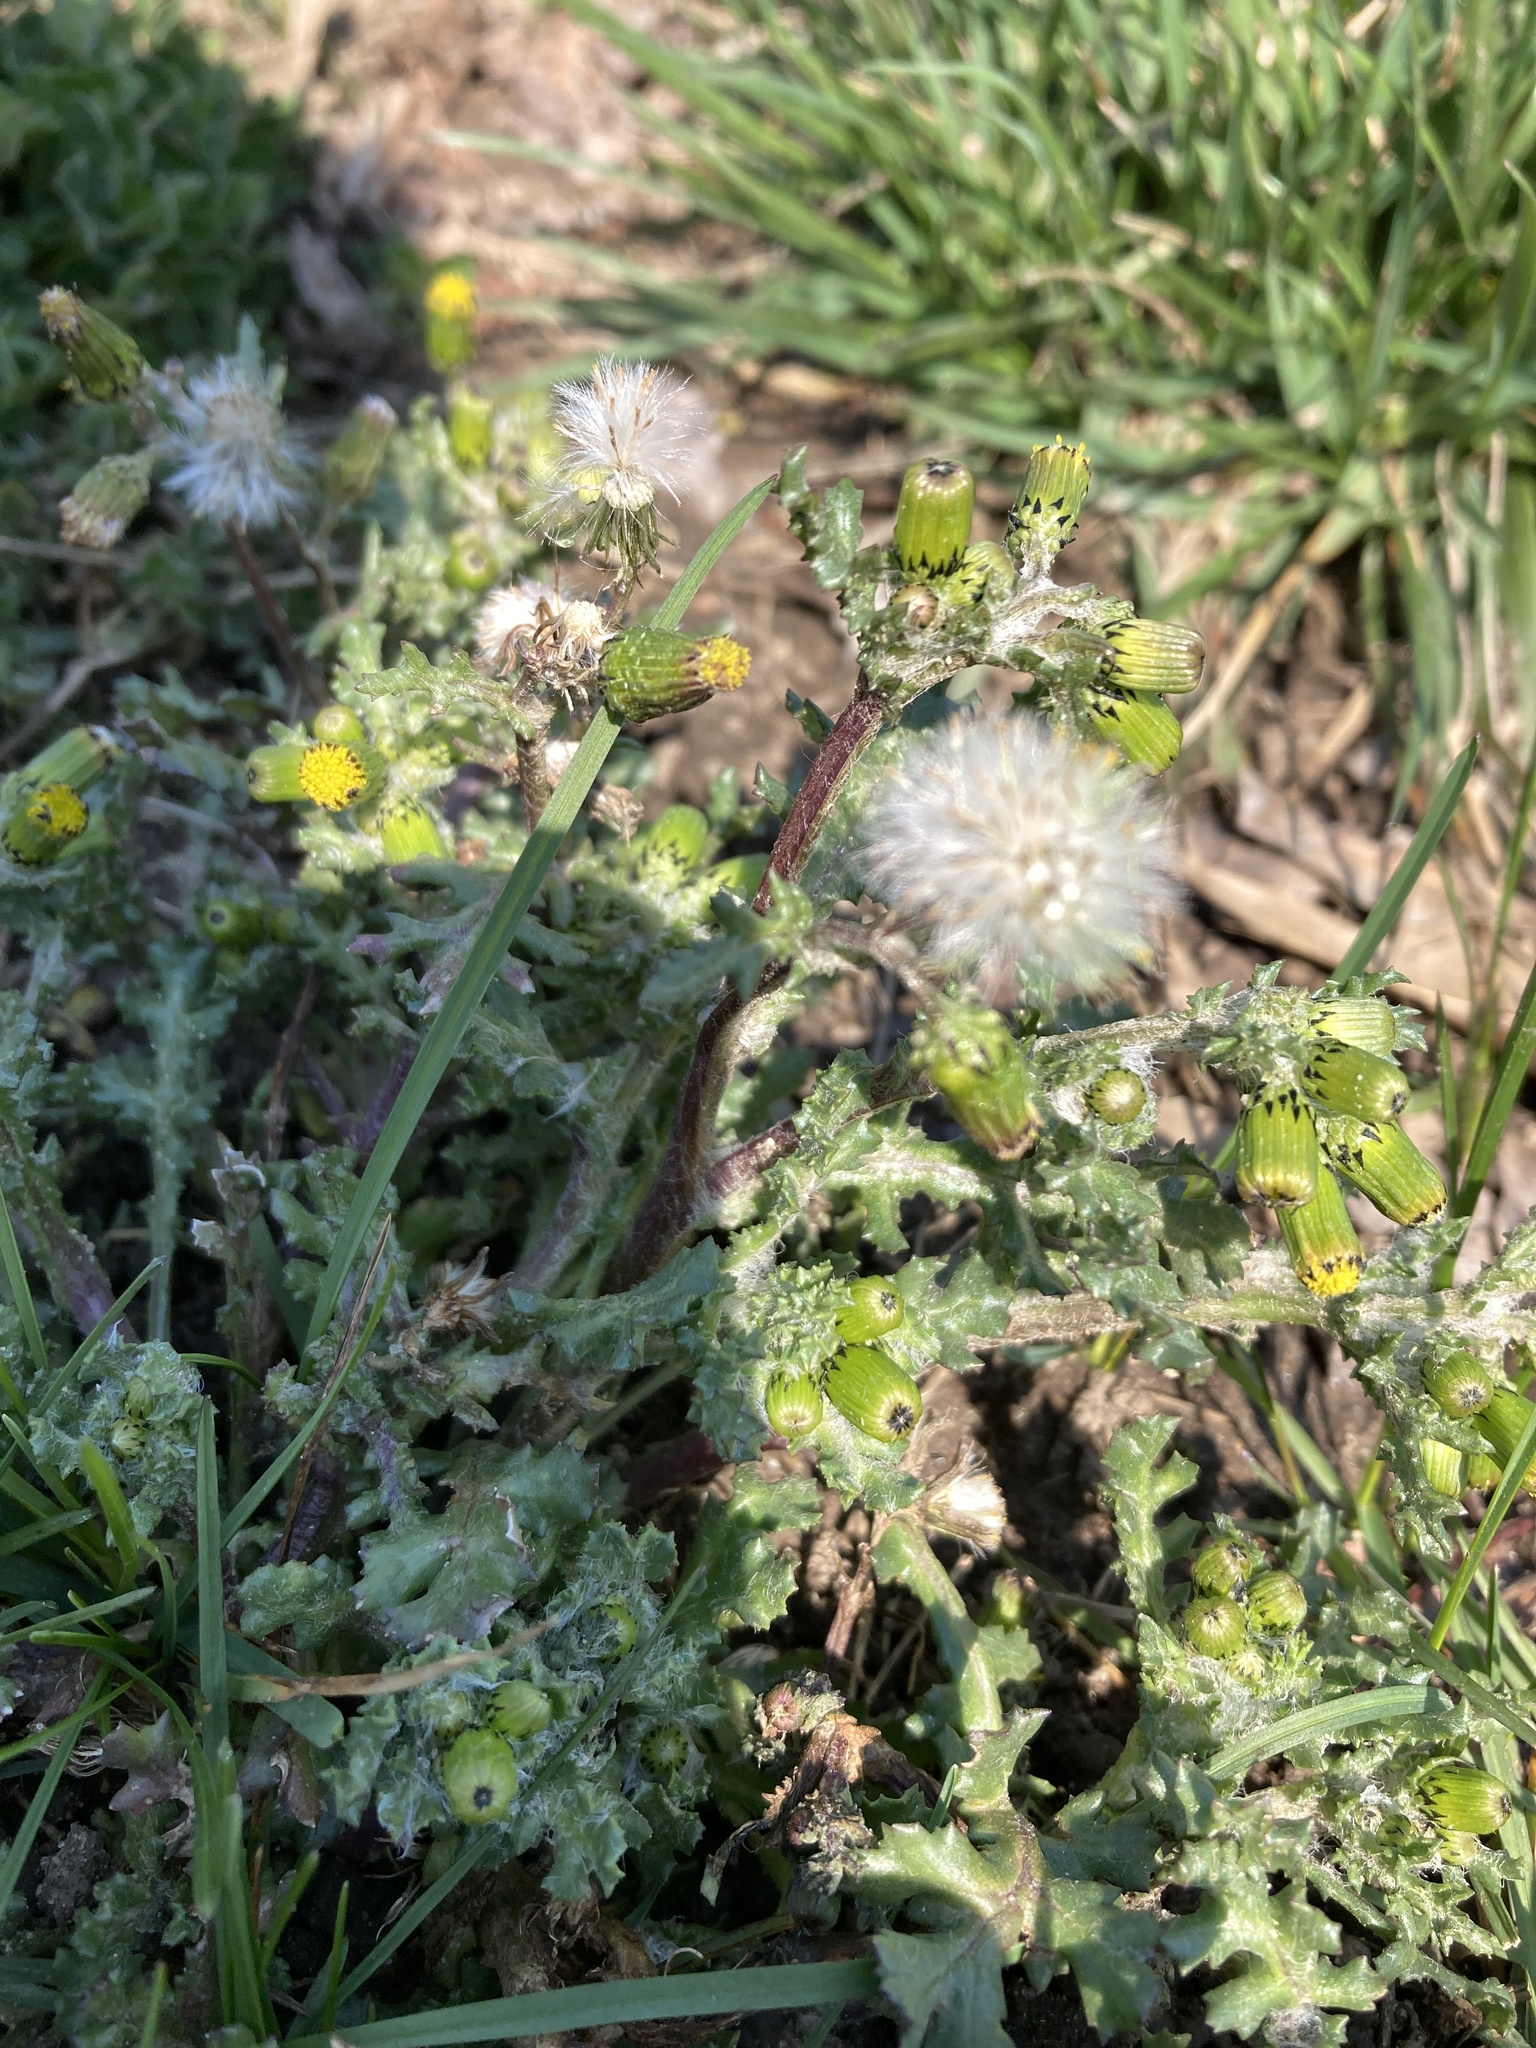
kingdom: Plantae
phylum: Tracheophyta
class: Magnoliopsida
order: Asterales
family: Asteraceae
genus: Senecio
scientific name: Senecio vulgaris
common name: Old-man-in-the-spring
